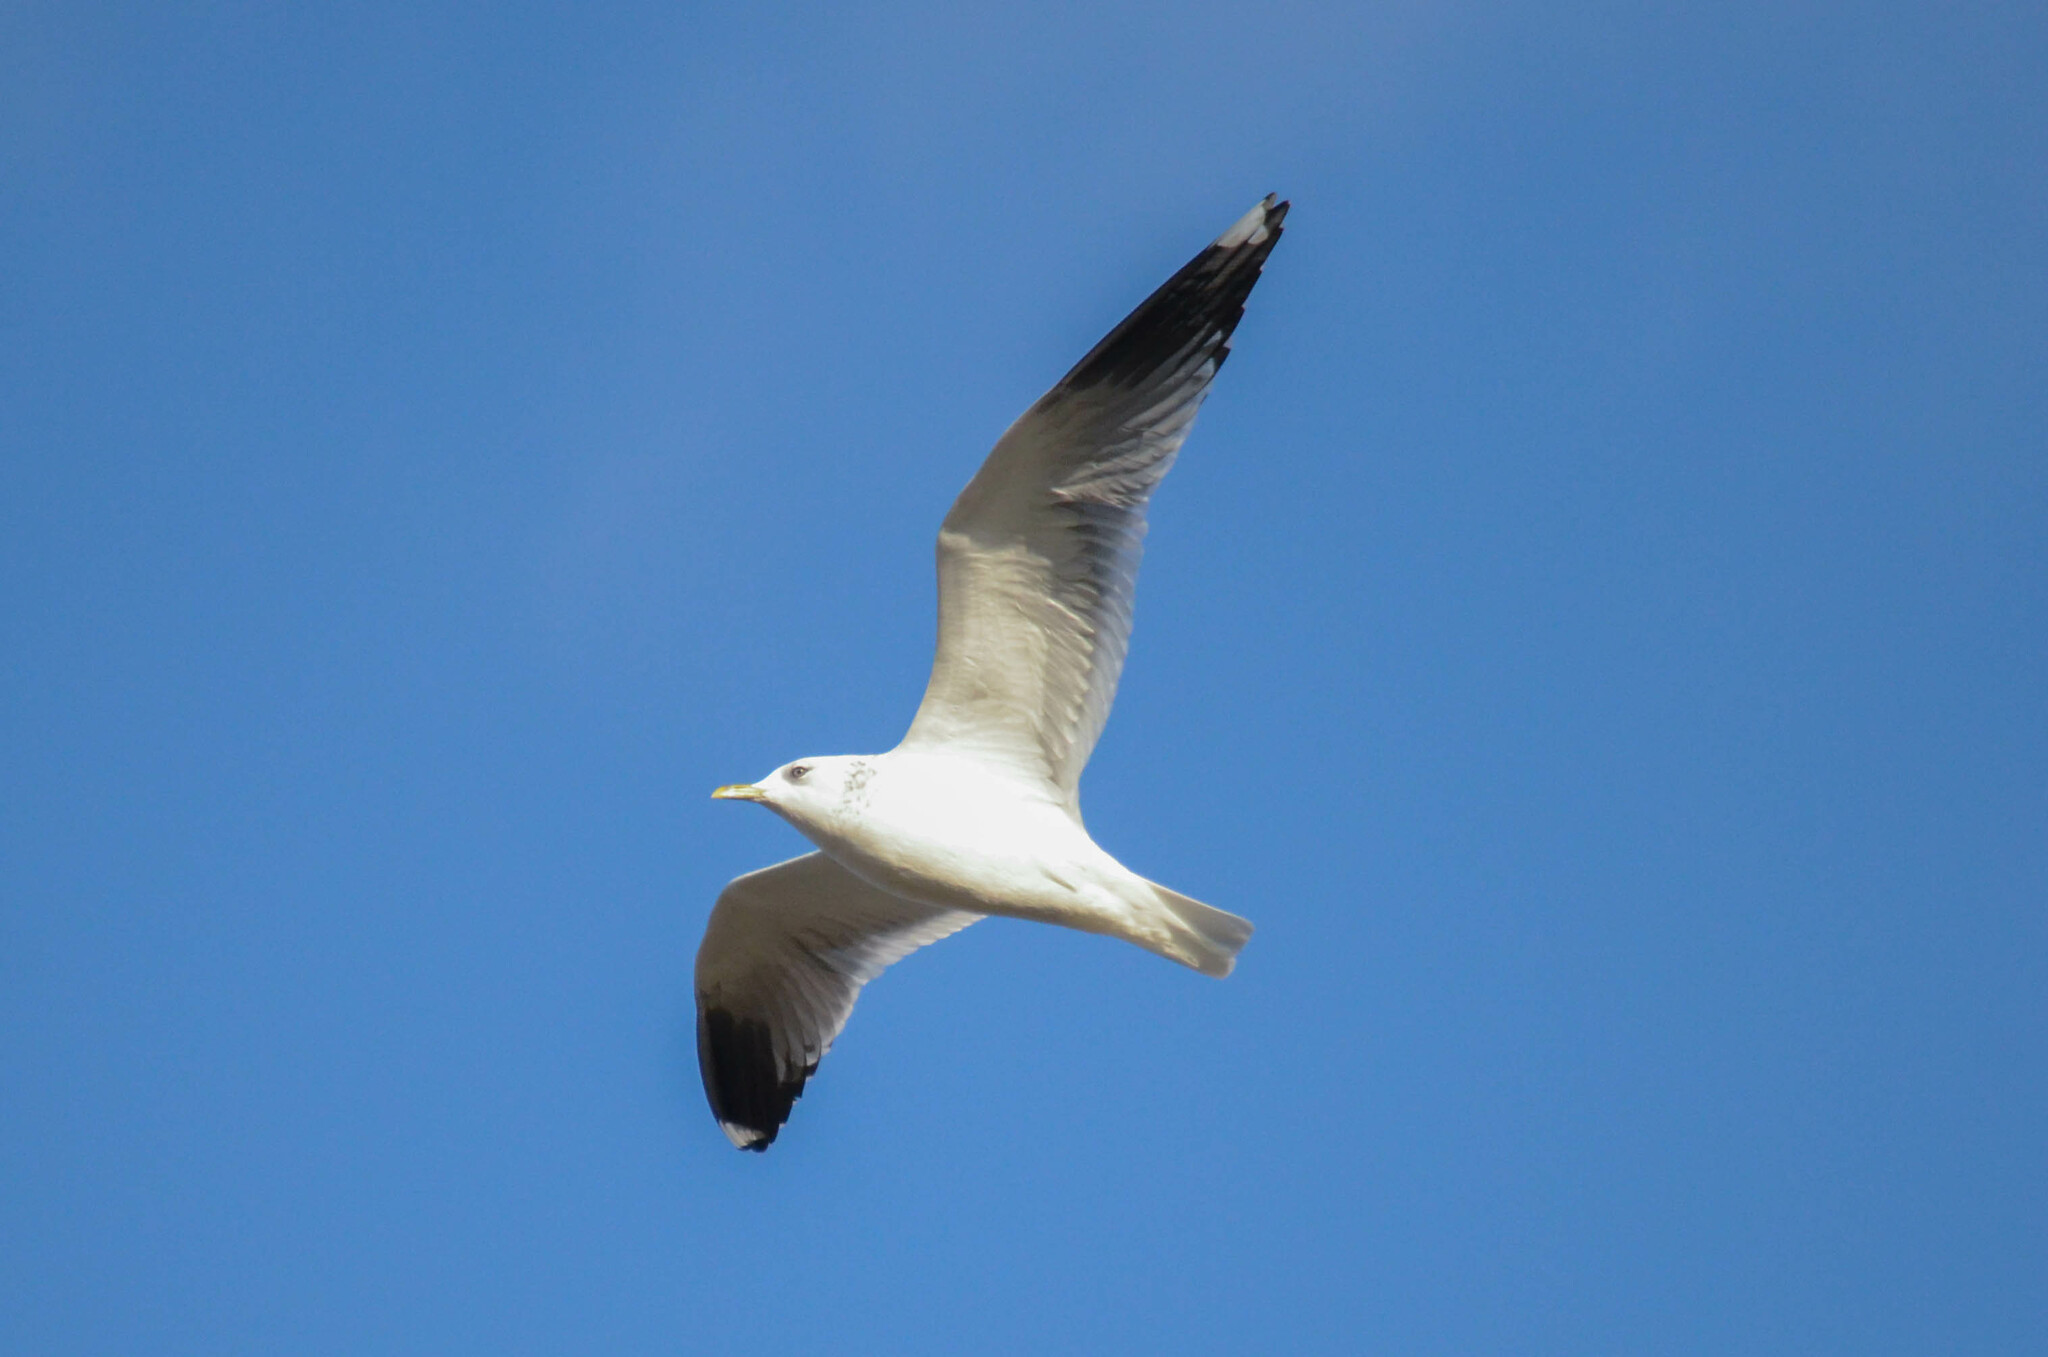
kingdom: Animalia
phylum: Chordata
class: Aves
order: Charadriiformes
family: Laridae
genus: Larus
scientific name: Larus canus
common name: Mew gull
